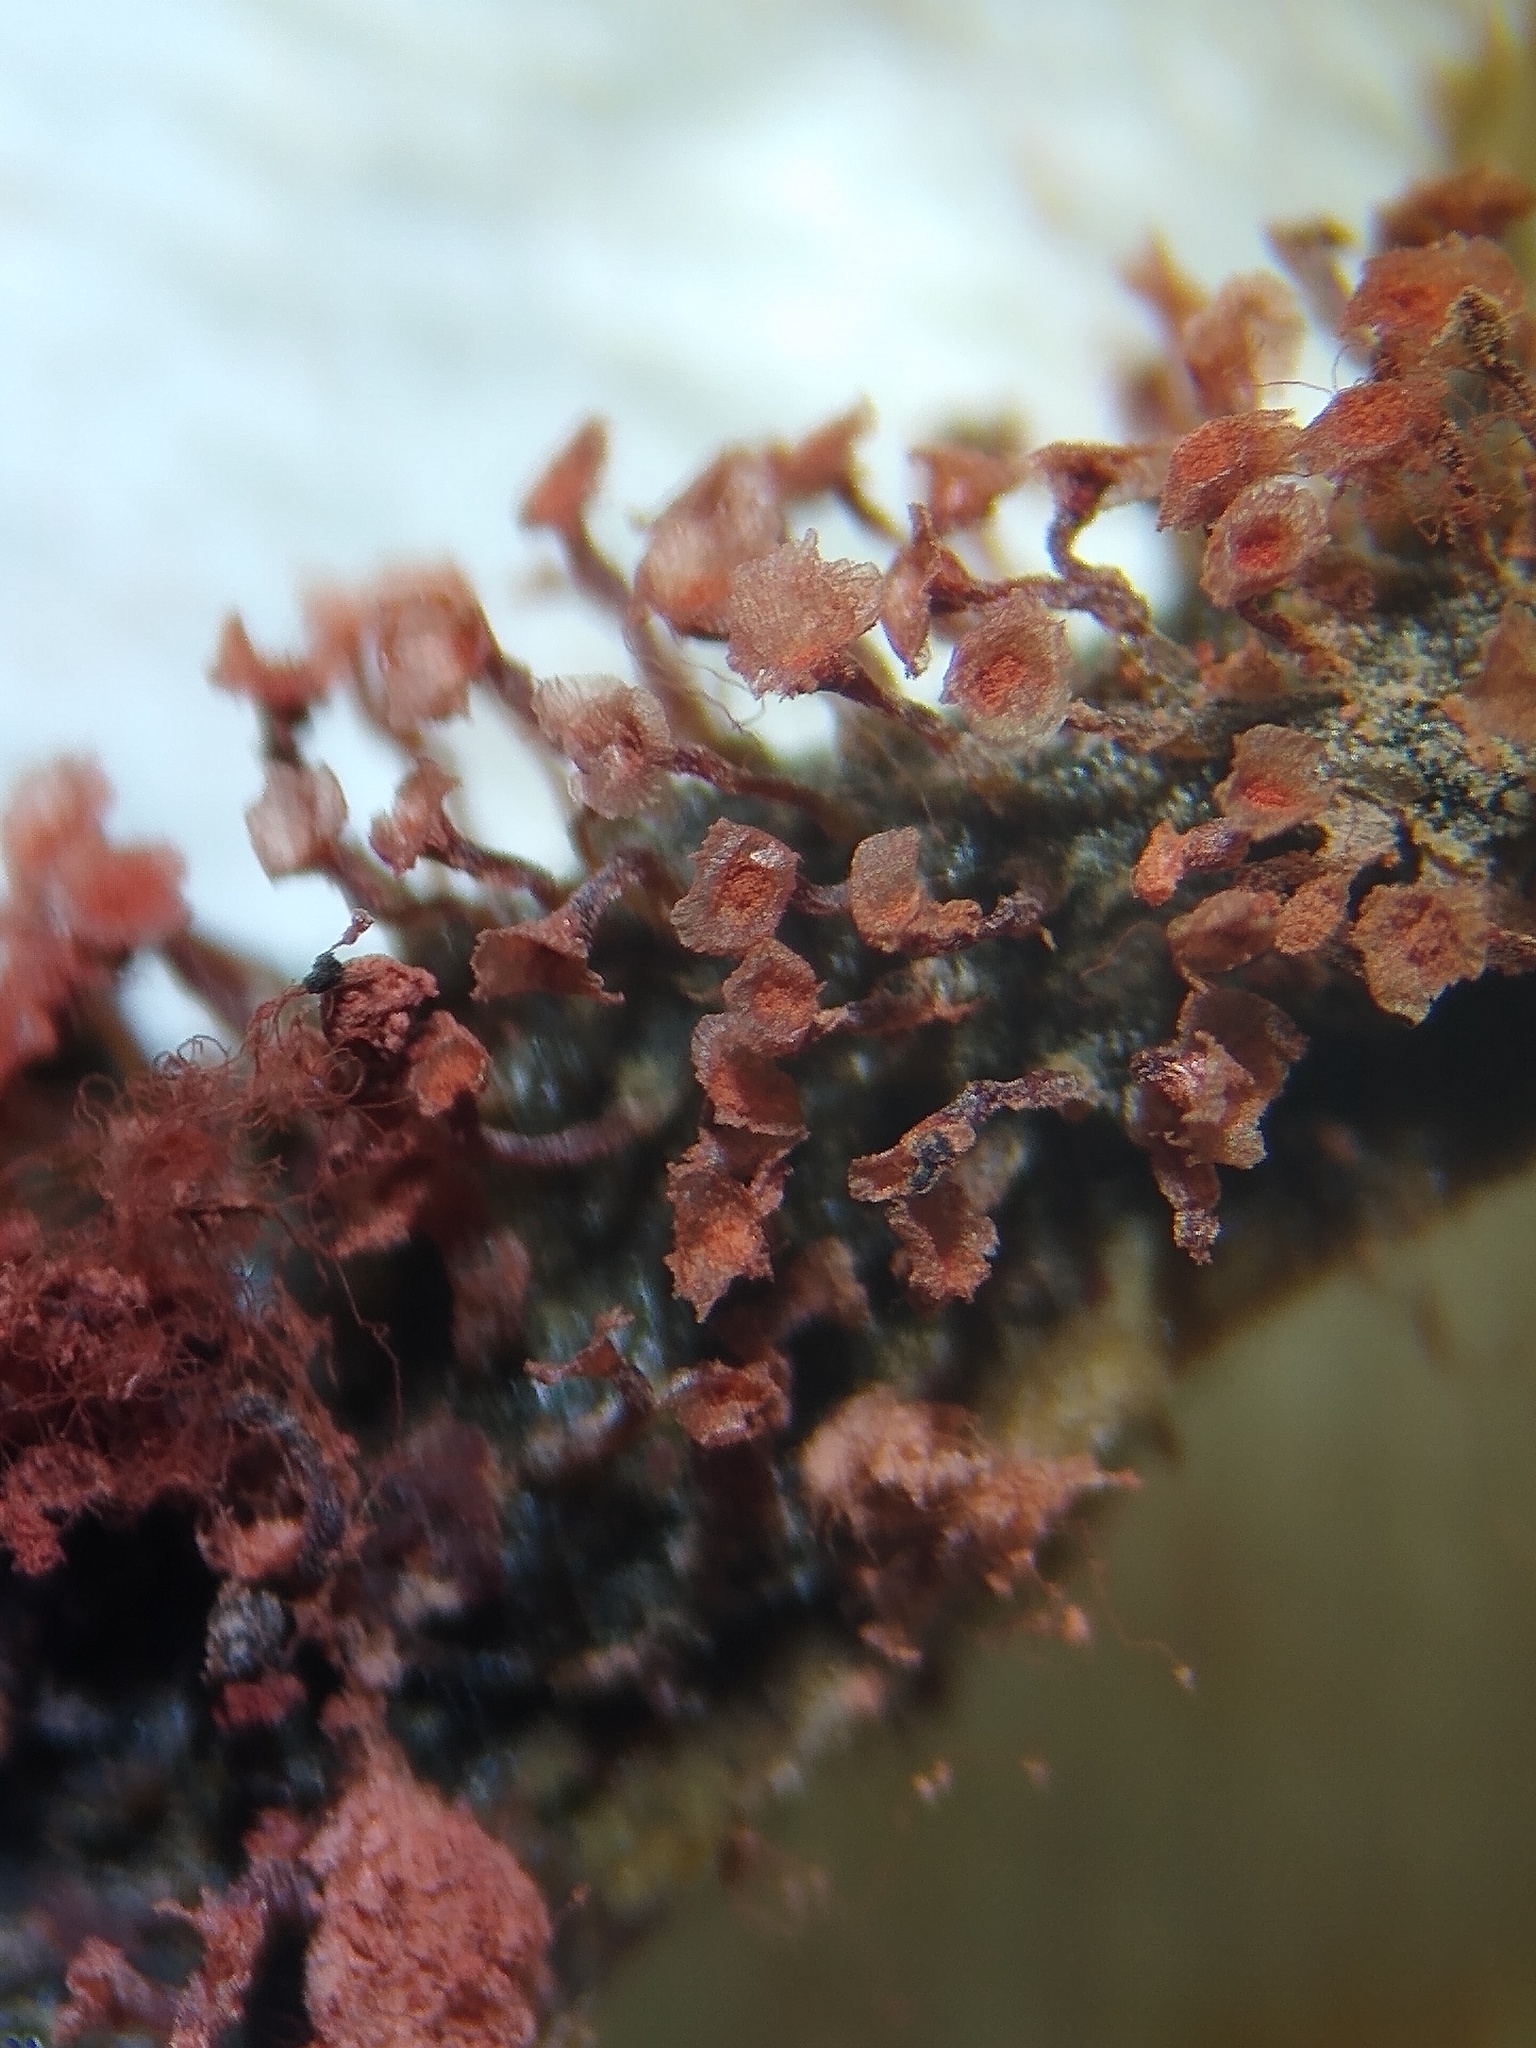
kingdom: Protozoa
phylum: Mycetozoa
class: Myxomycetes
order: Trichiales
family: Arcyriaceae
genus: Arcyria
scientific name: Arcyria affinis
